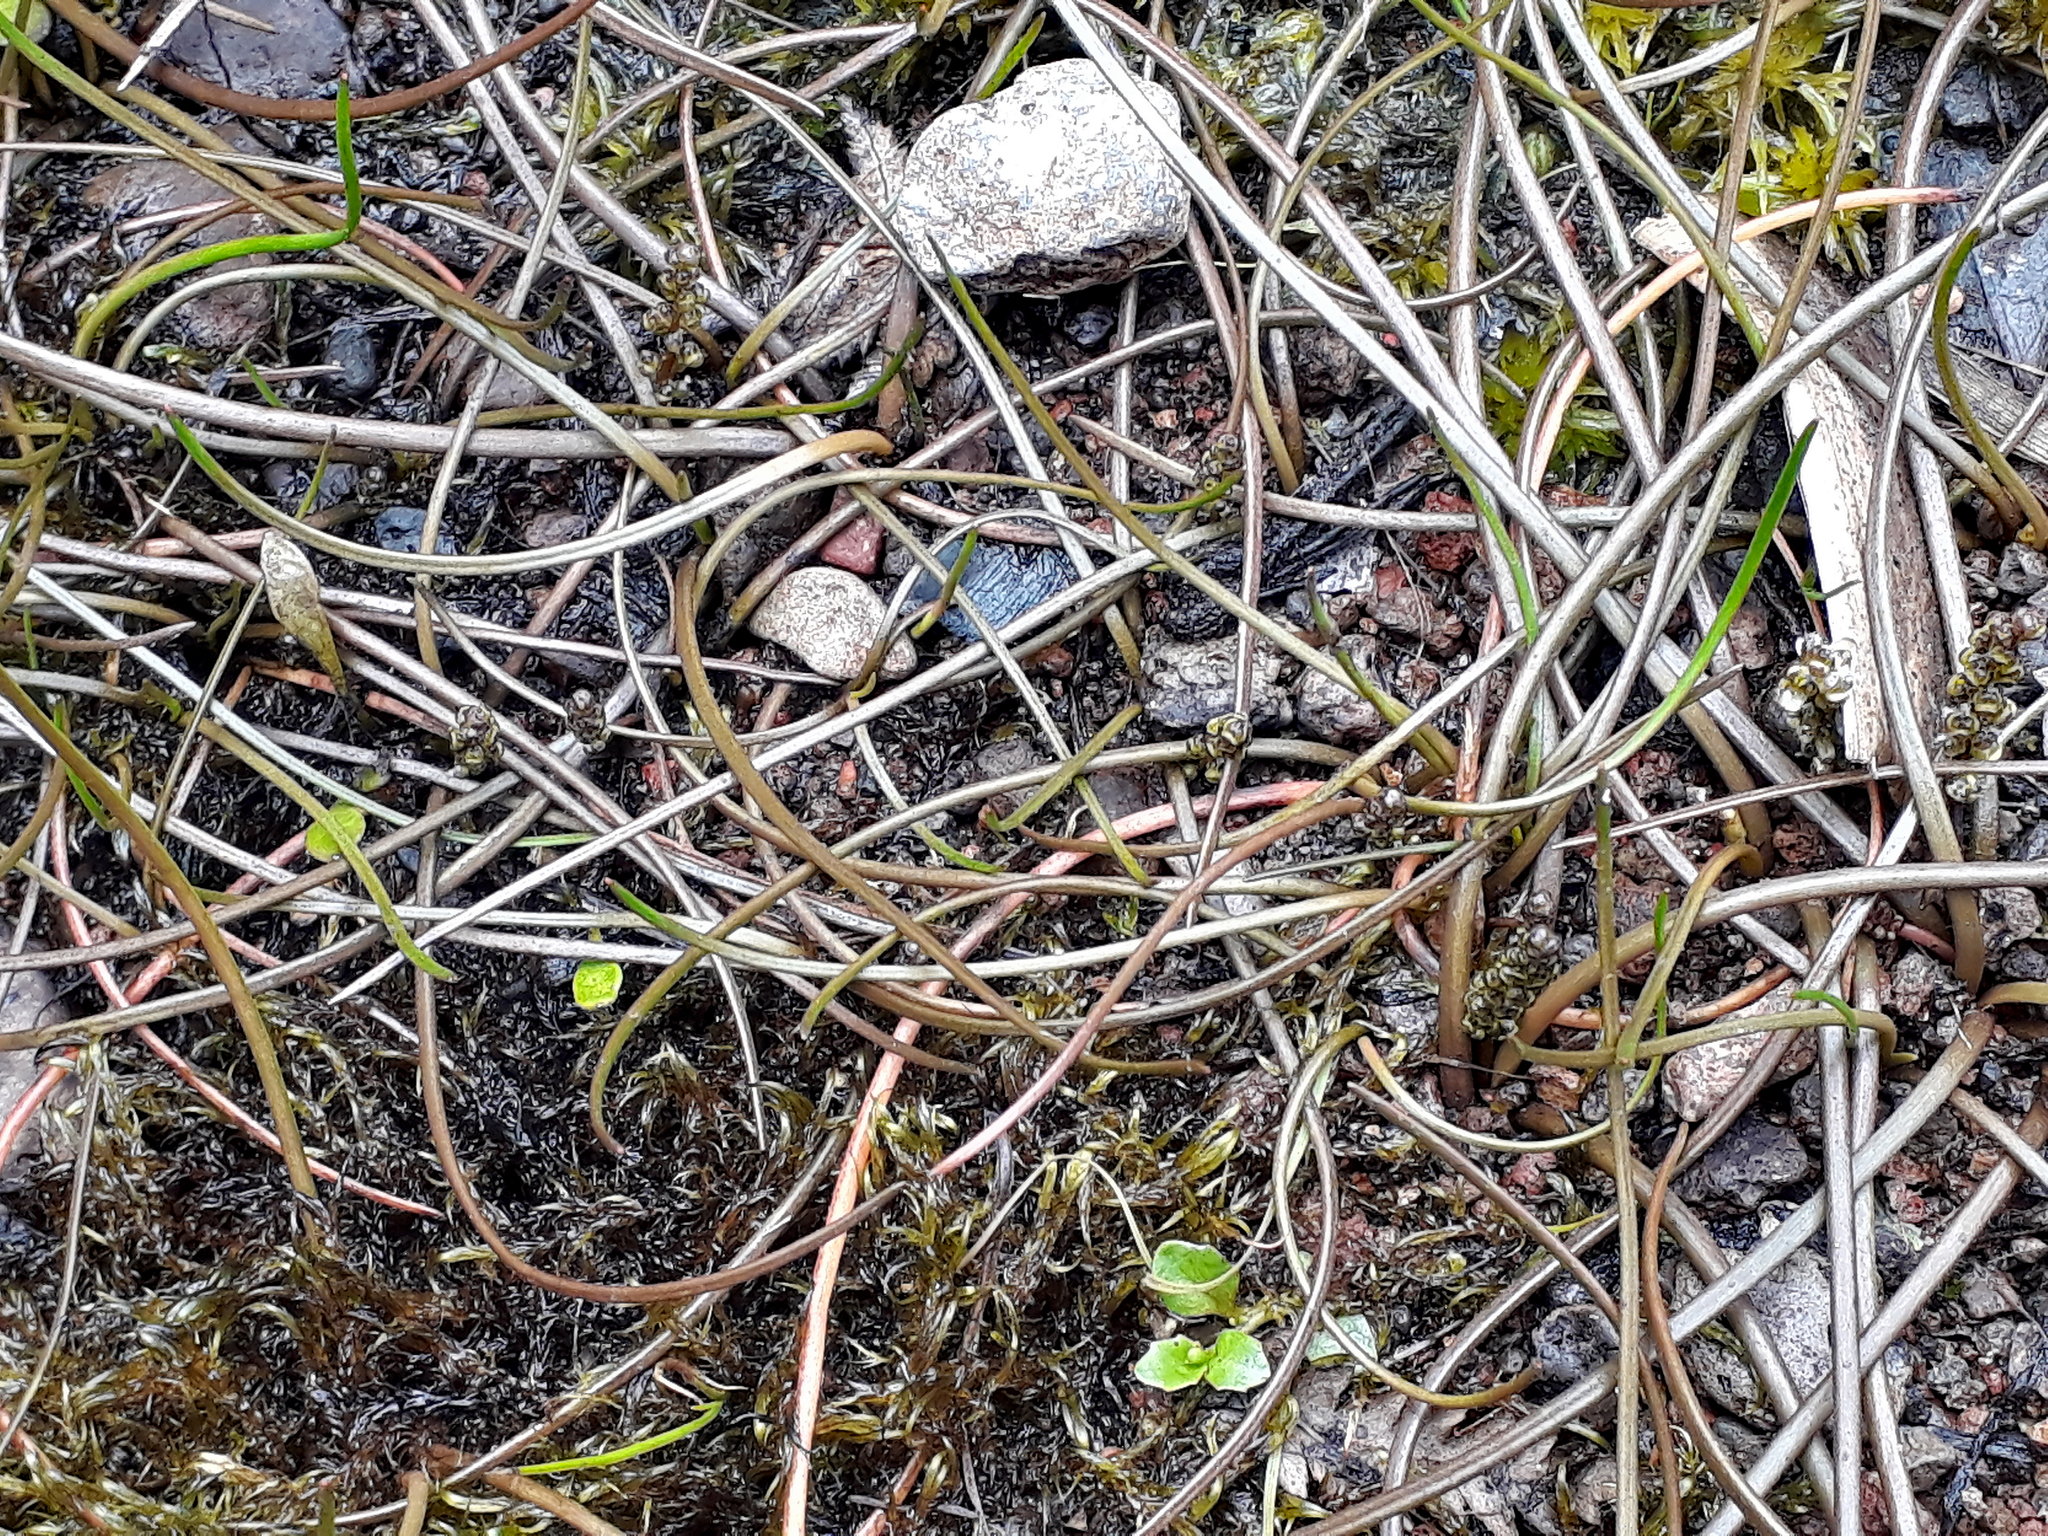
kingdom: Plantae
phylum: Tracheophyta
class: Liliopsida
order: Alismatales
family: Juncaginaceae
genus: Triglochin
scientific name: Triglochin striata
